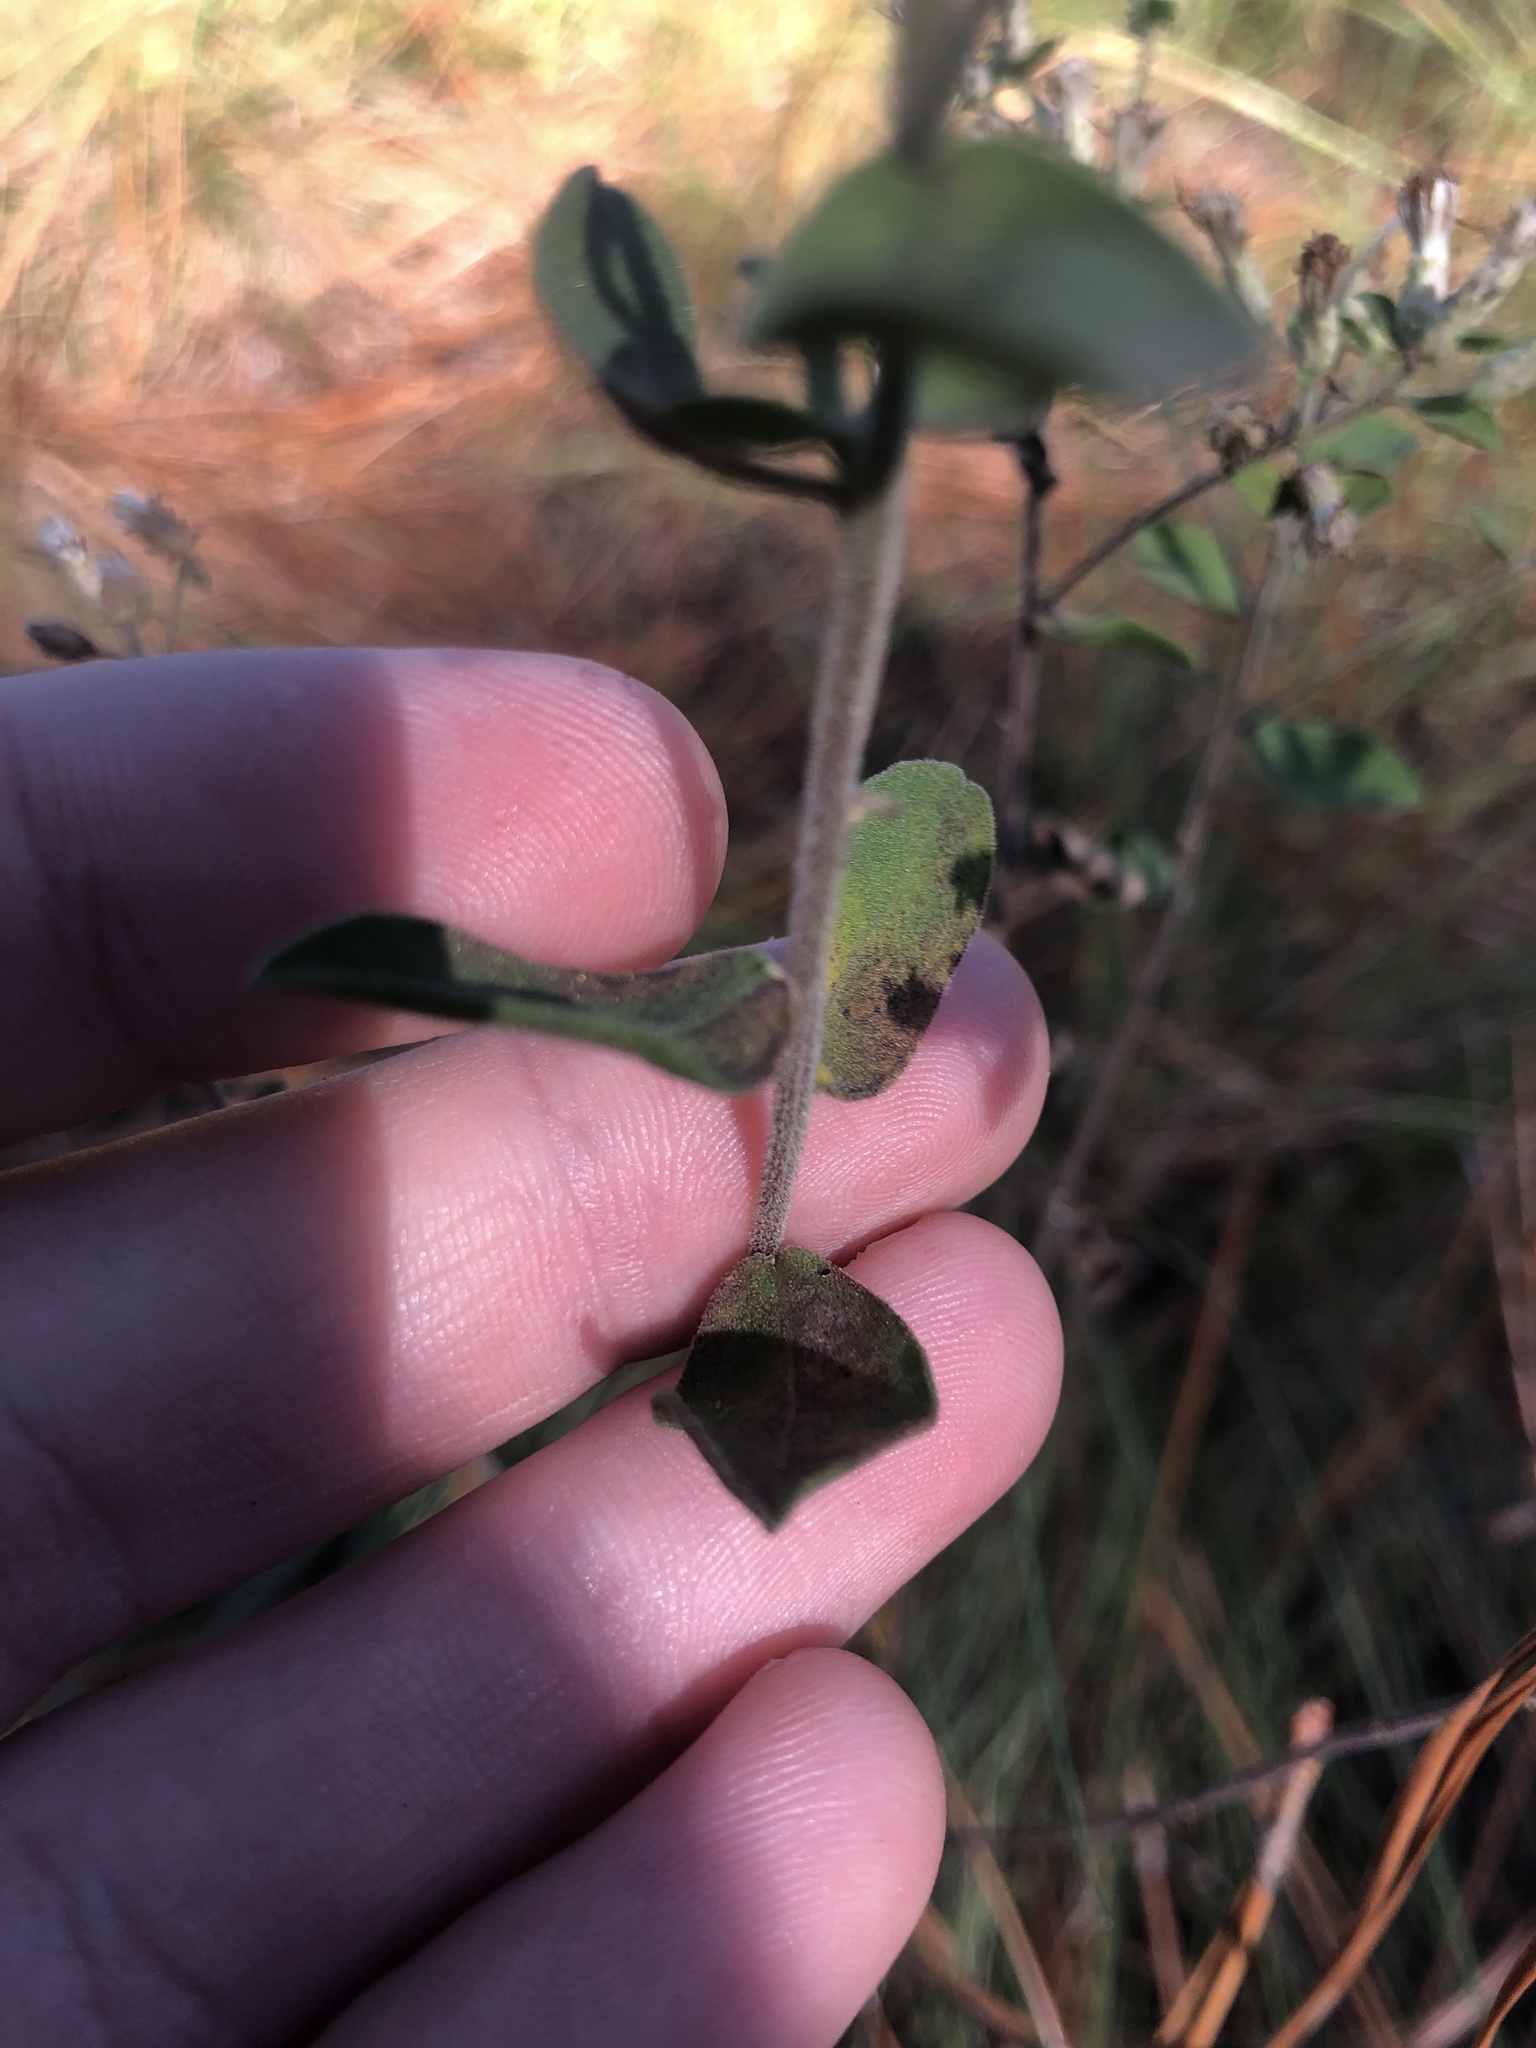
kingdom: Plantae
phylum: Tracheophyta
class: Magnoliopsida
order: Asterales
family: Asteraceae
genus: Sericocarpus
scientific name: Sericocarpus tortifolius
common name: Dixie aster
